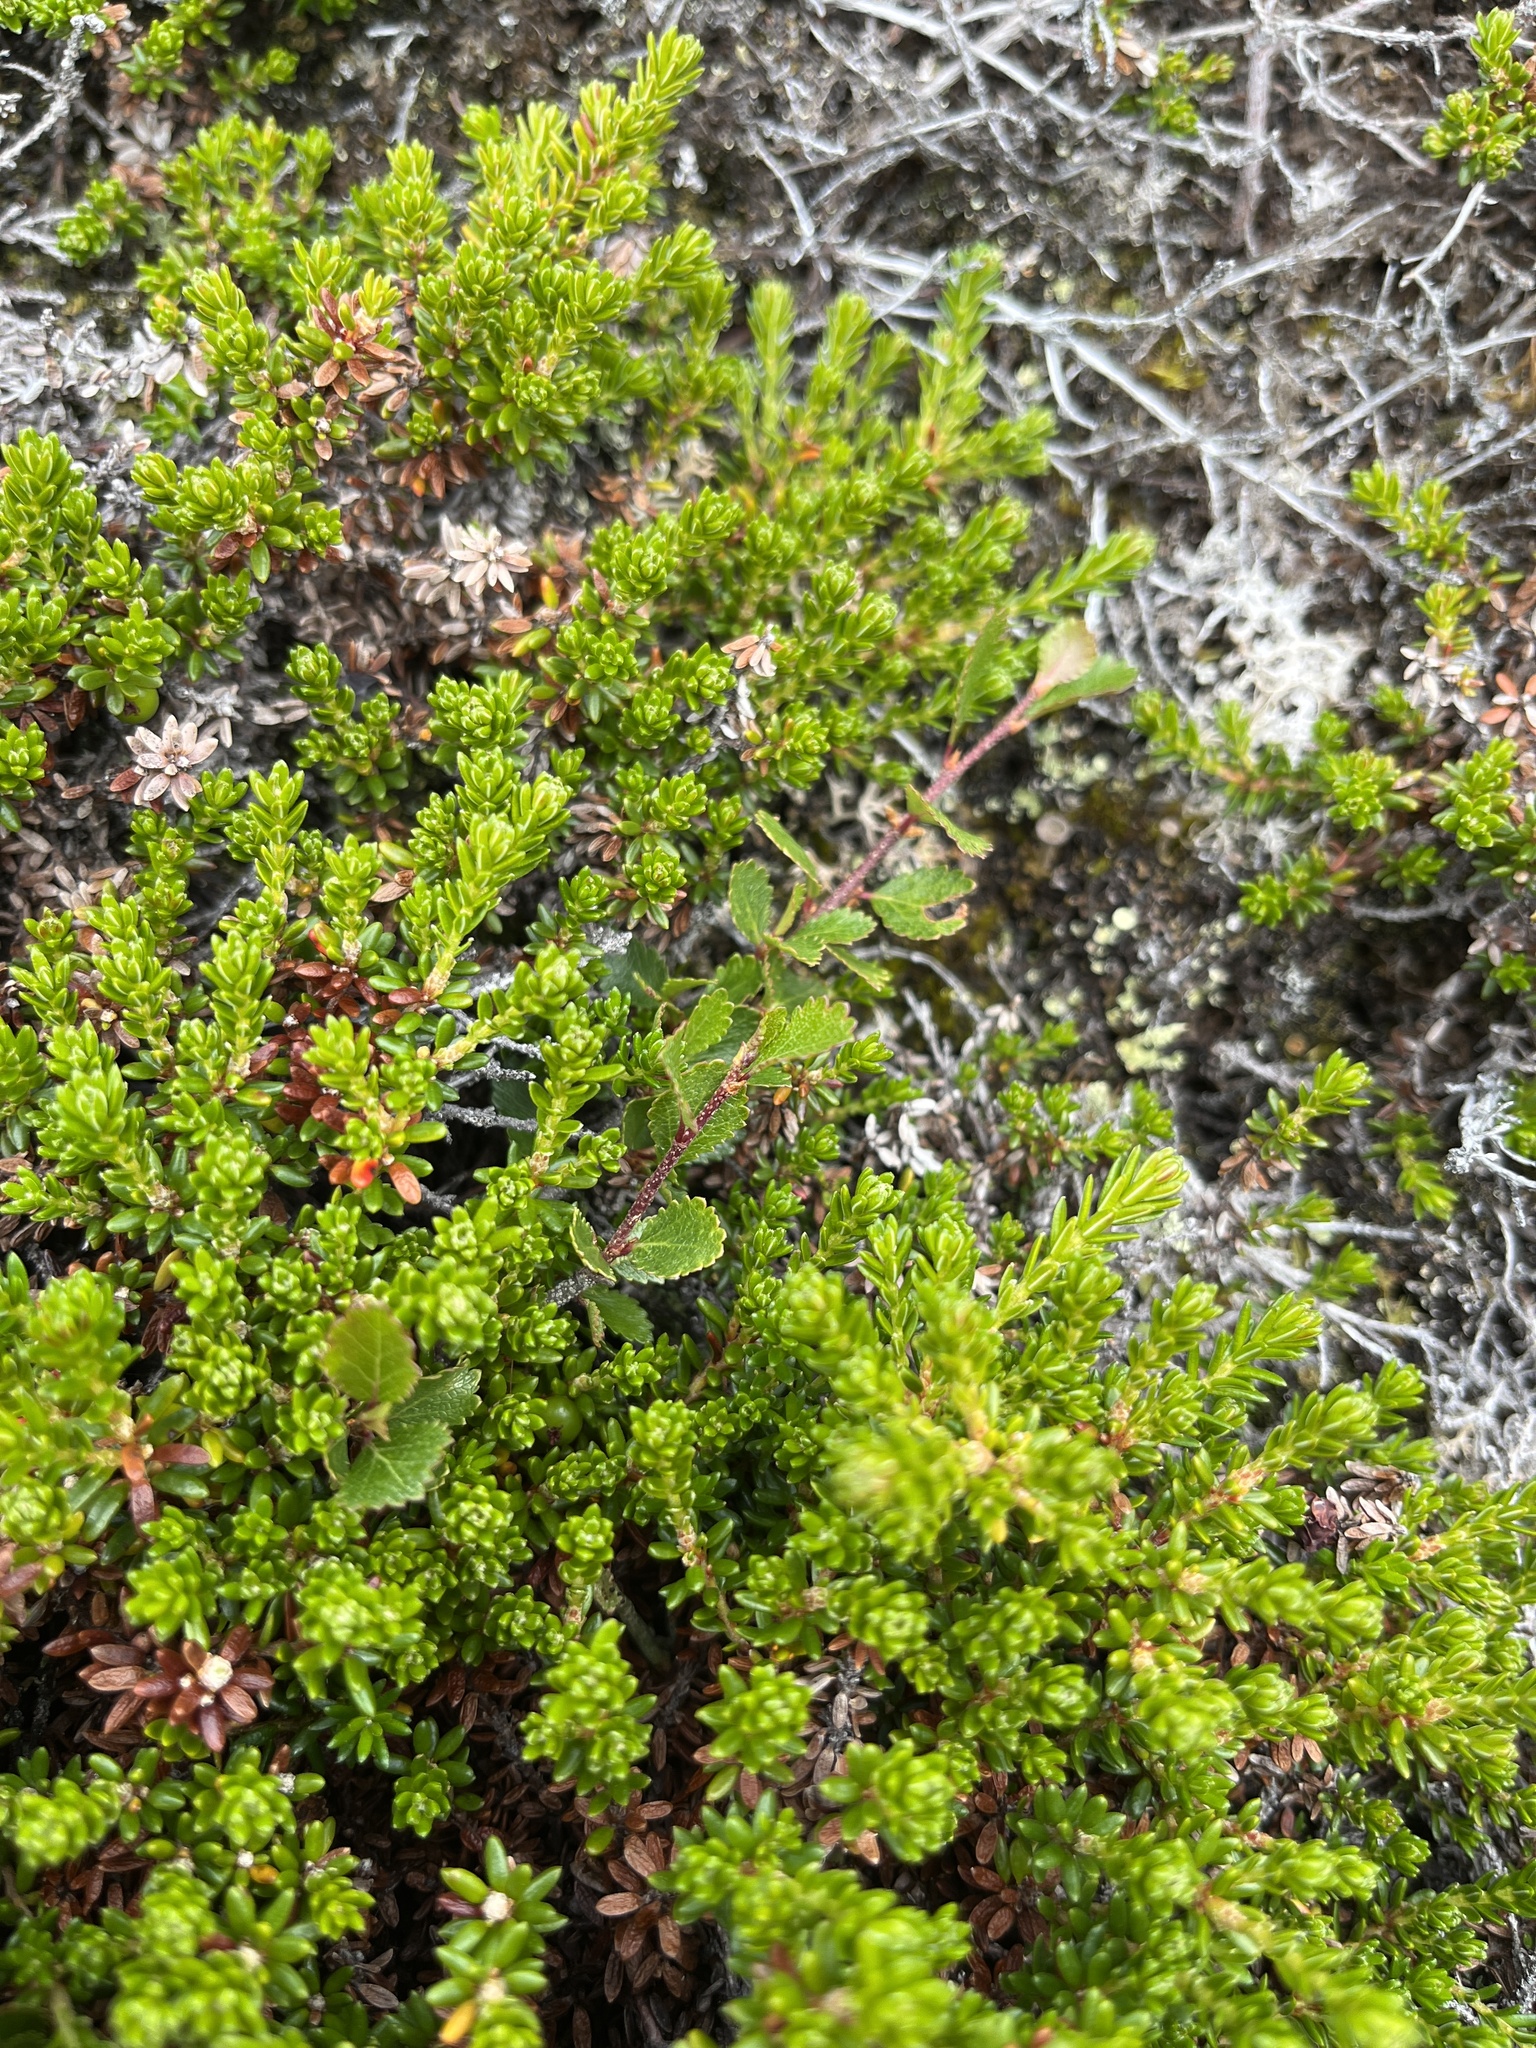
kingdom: Plantae
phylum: Tracheophyta
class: Magnoliopsida
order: Fagales
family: Betulaceae
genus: Betula
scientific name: Betula glandulosa
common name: Dwarf birch
